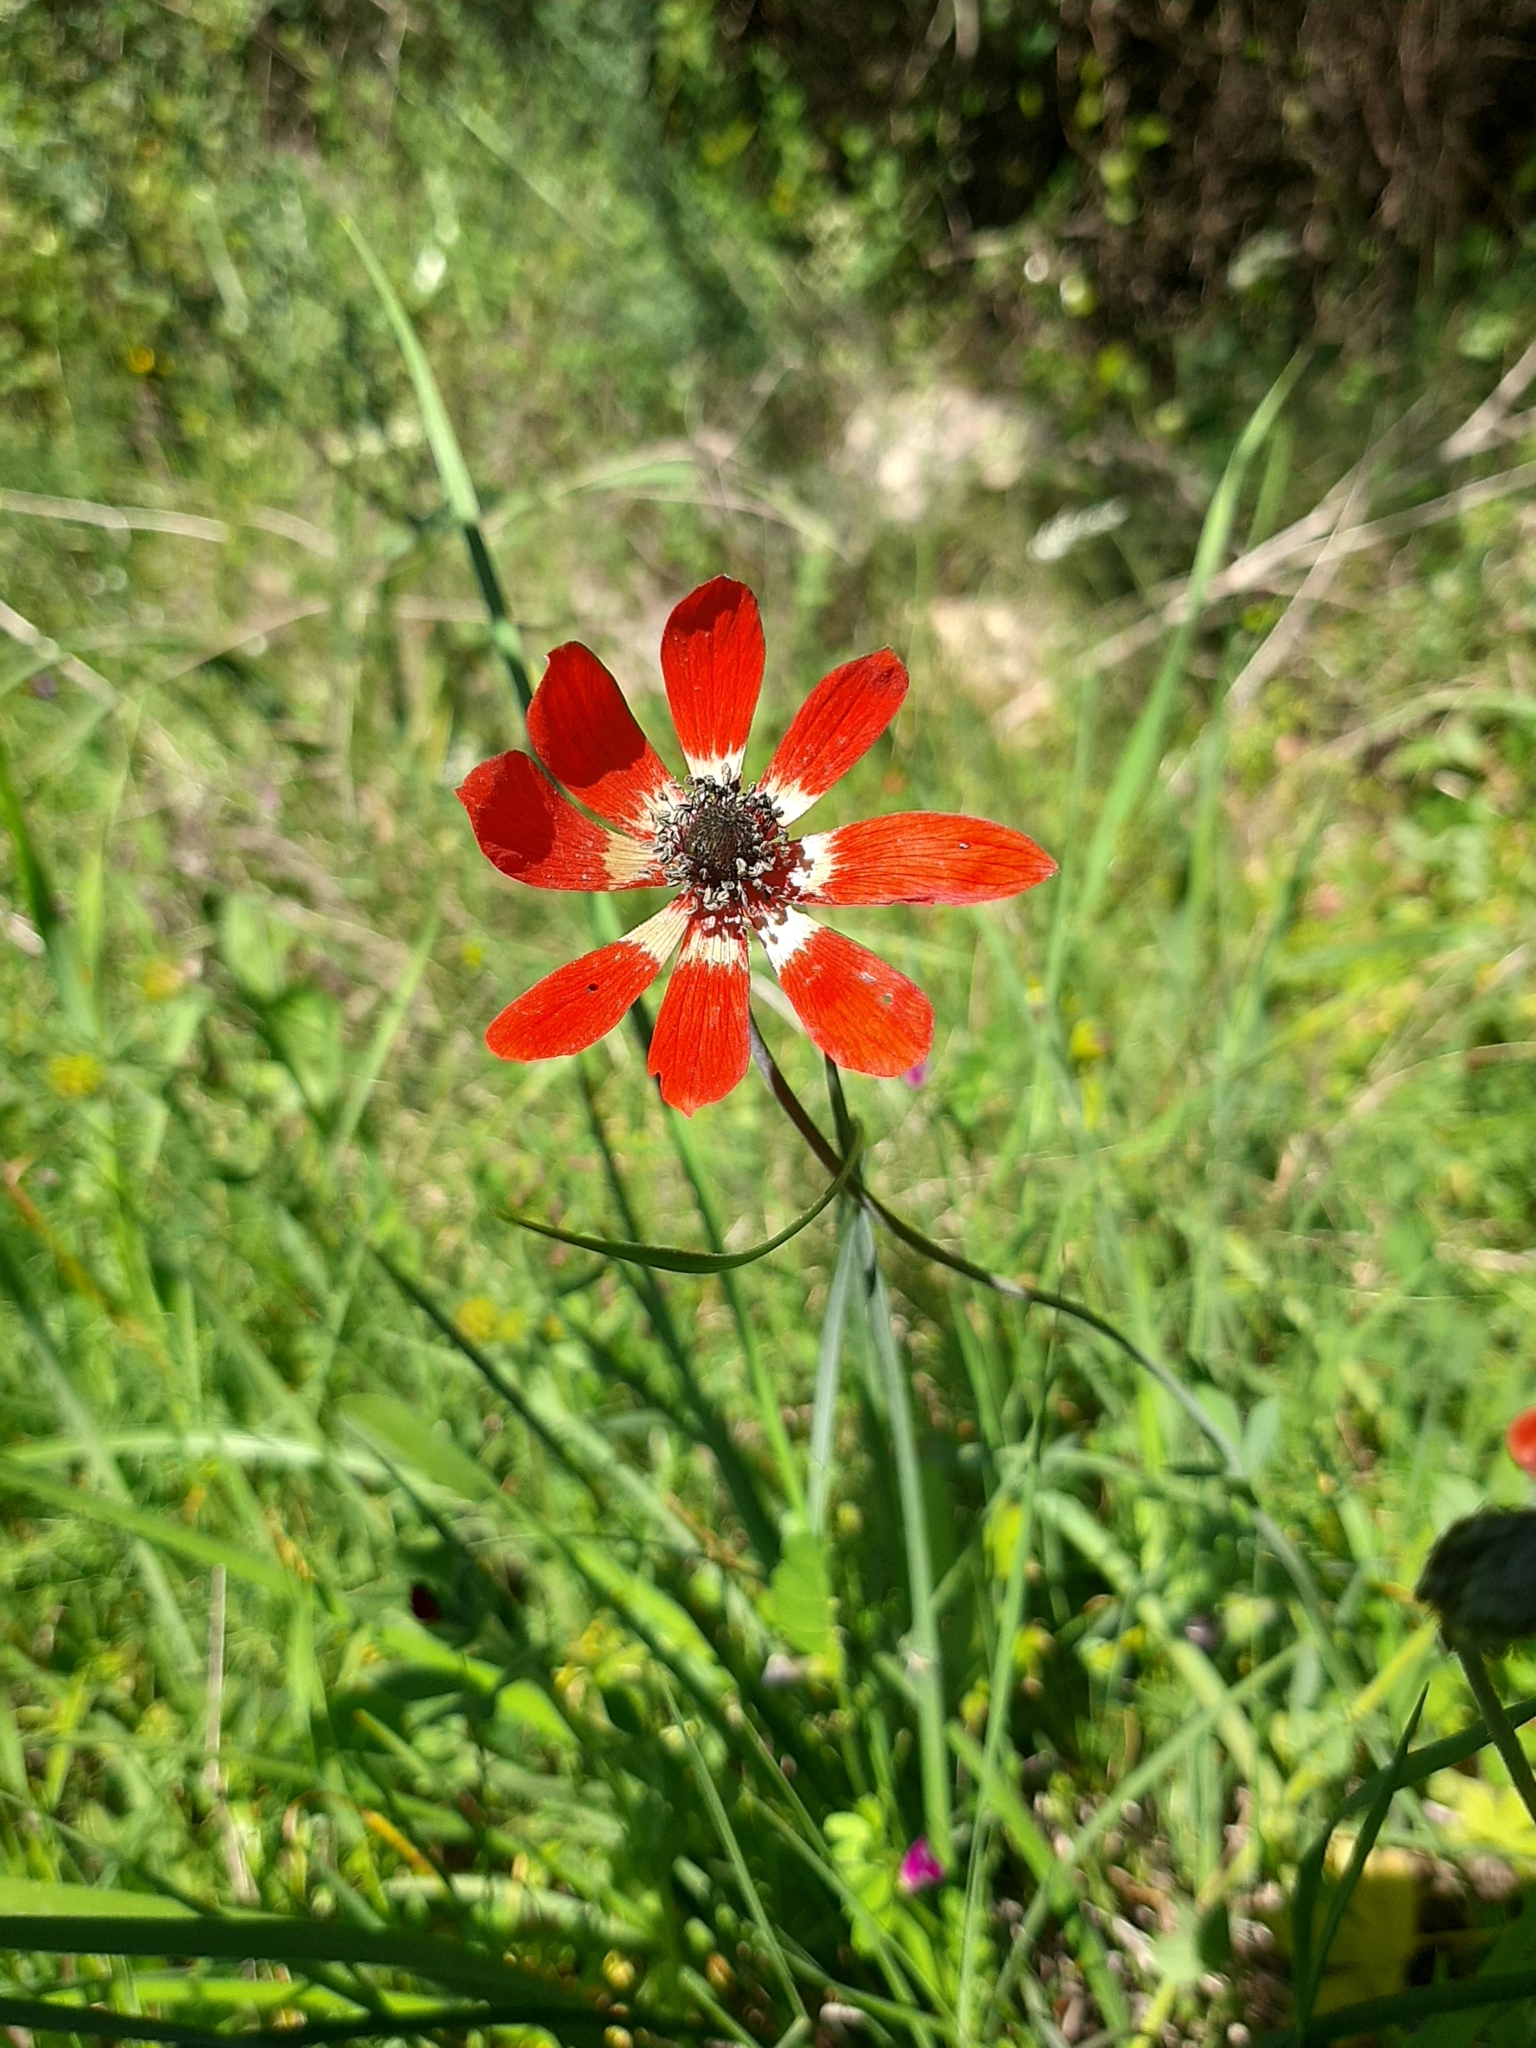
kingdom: Plantae
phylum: Tracheophyta
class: Magnoliopsida
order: Ranunculales
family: Ranunculaceae
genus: Anemone
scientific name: Anemone pavonina
